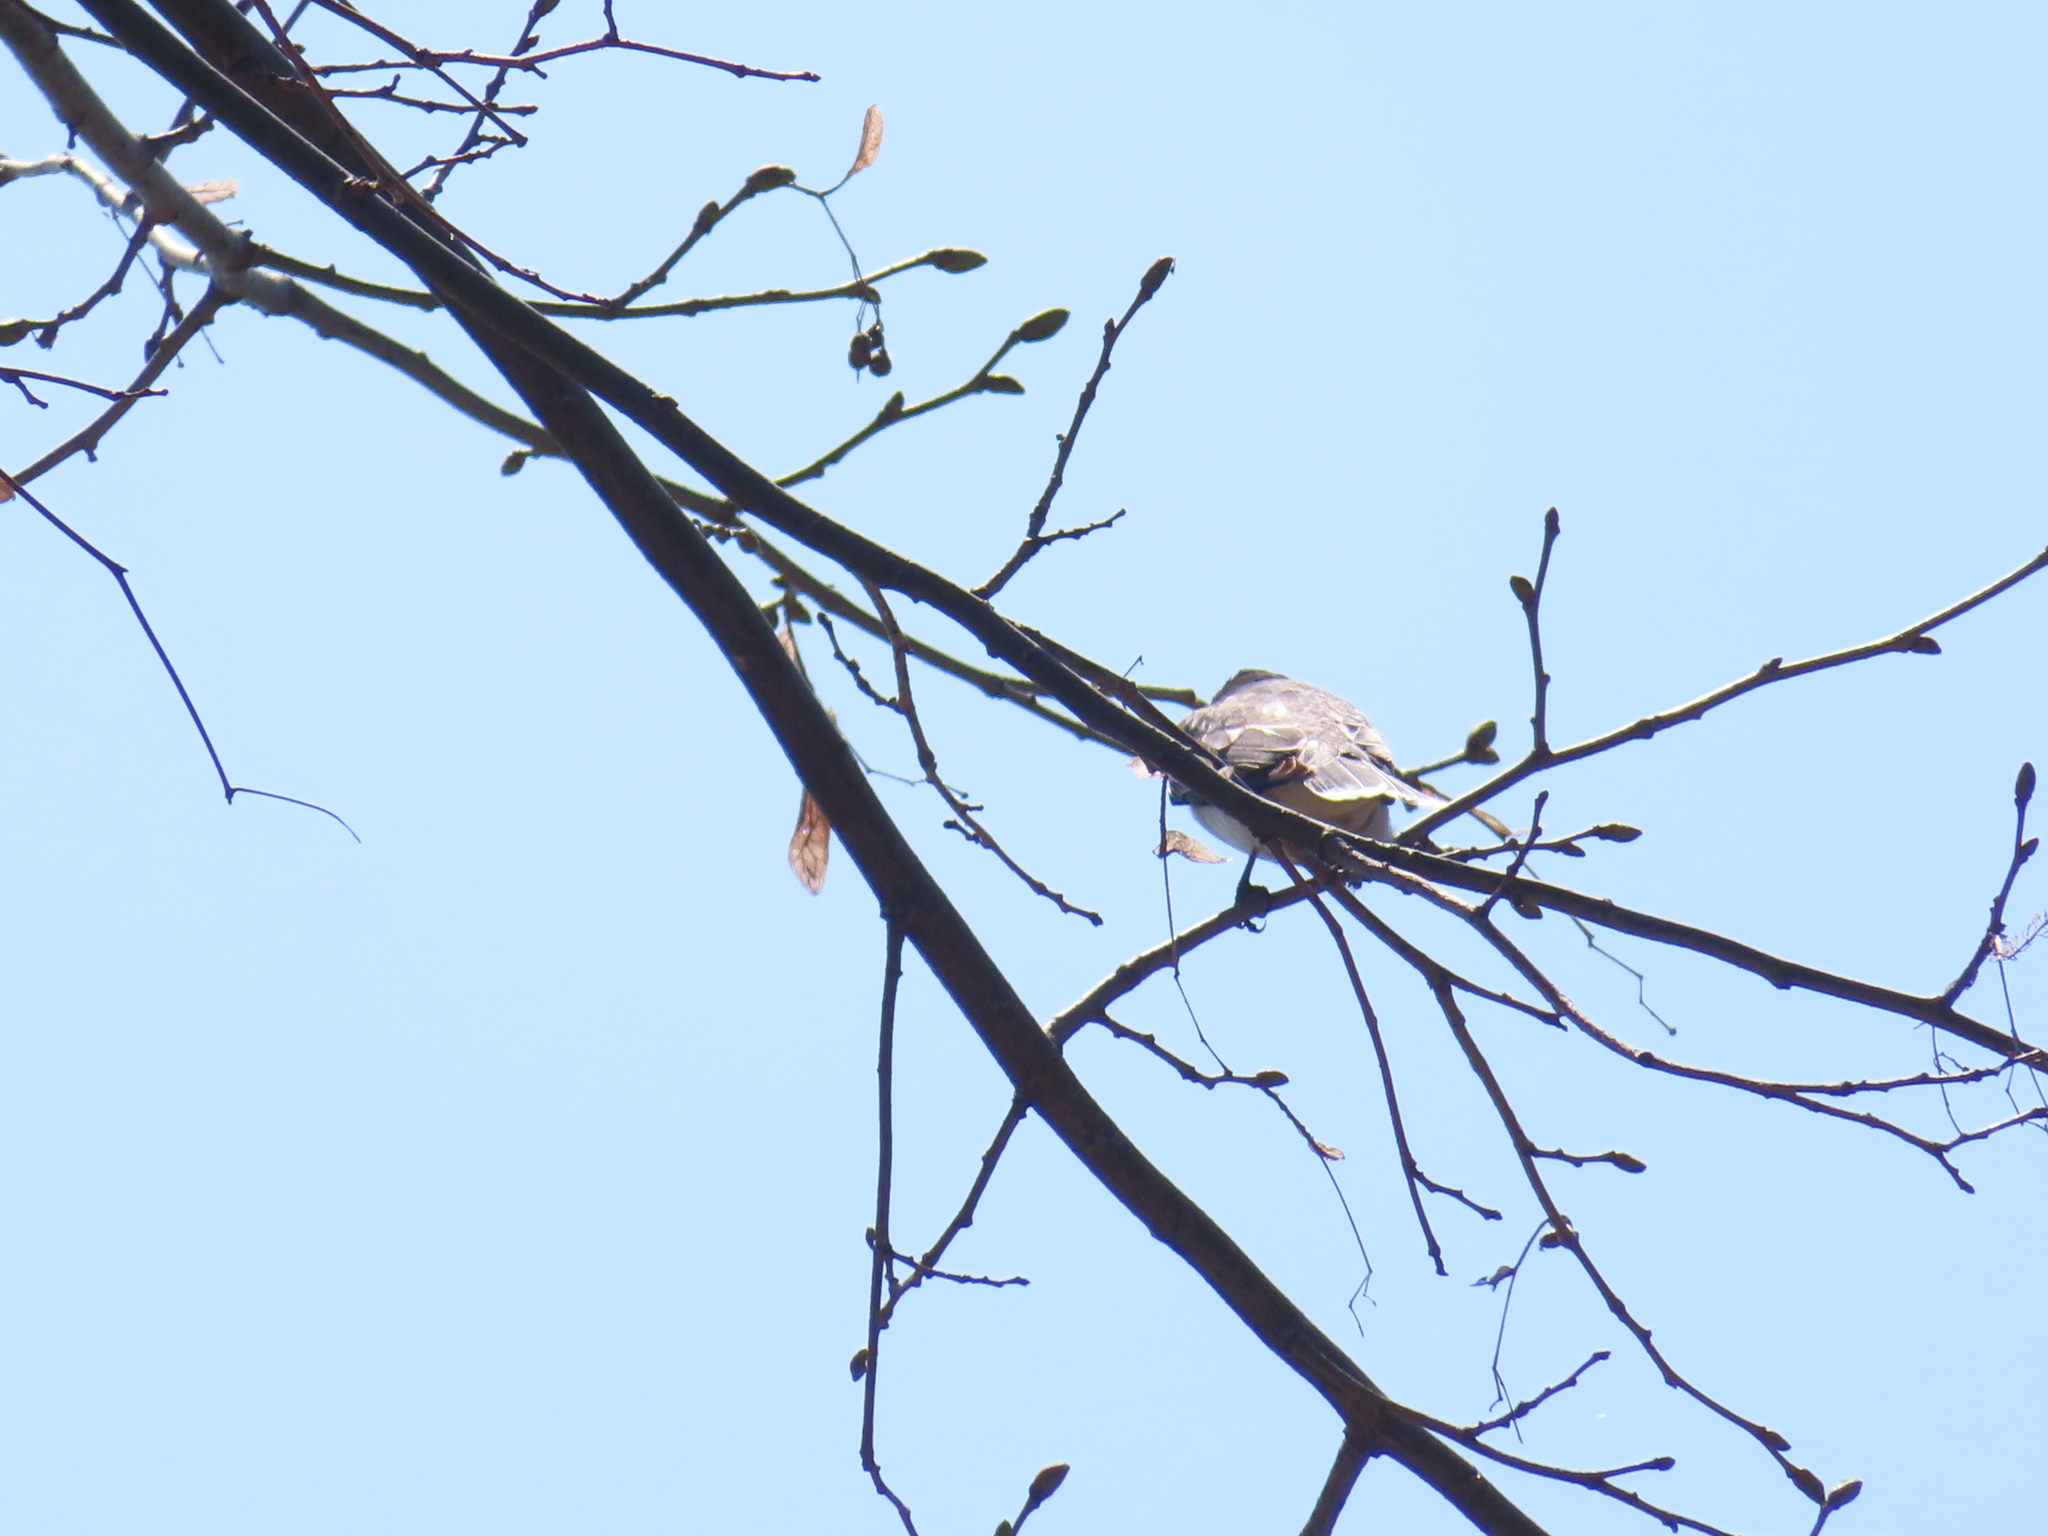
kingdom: Animalia
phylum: Chordata
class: Aves
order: Passeriformes
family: Tyrannidae
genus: Tyrannus
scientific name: Tyrannus tyrannus
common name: Eastern kingbird
